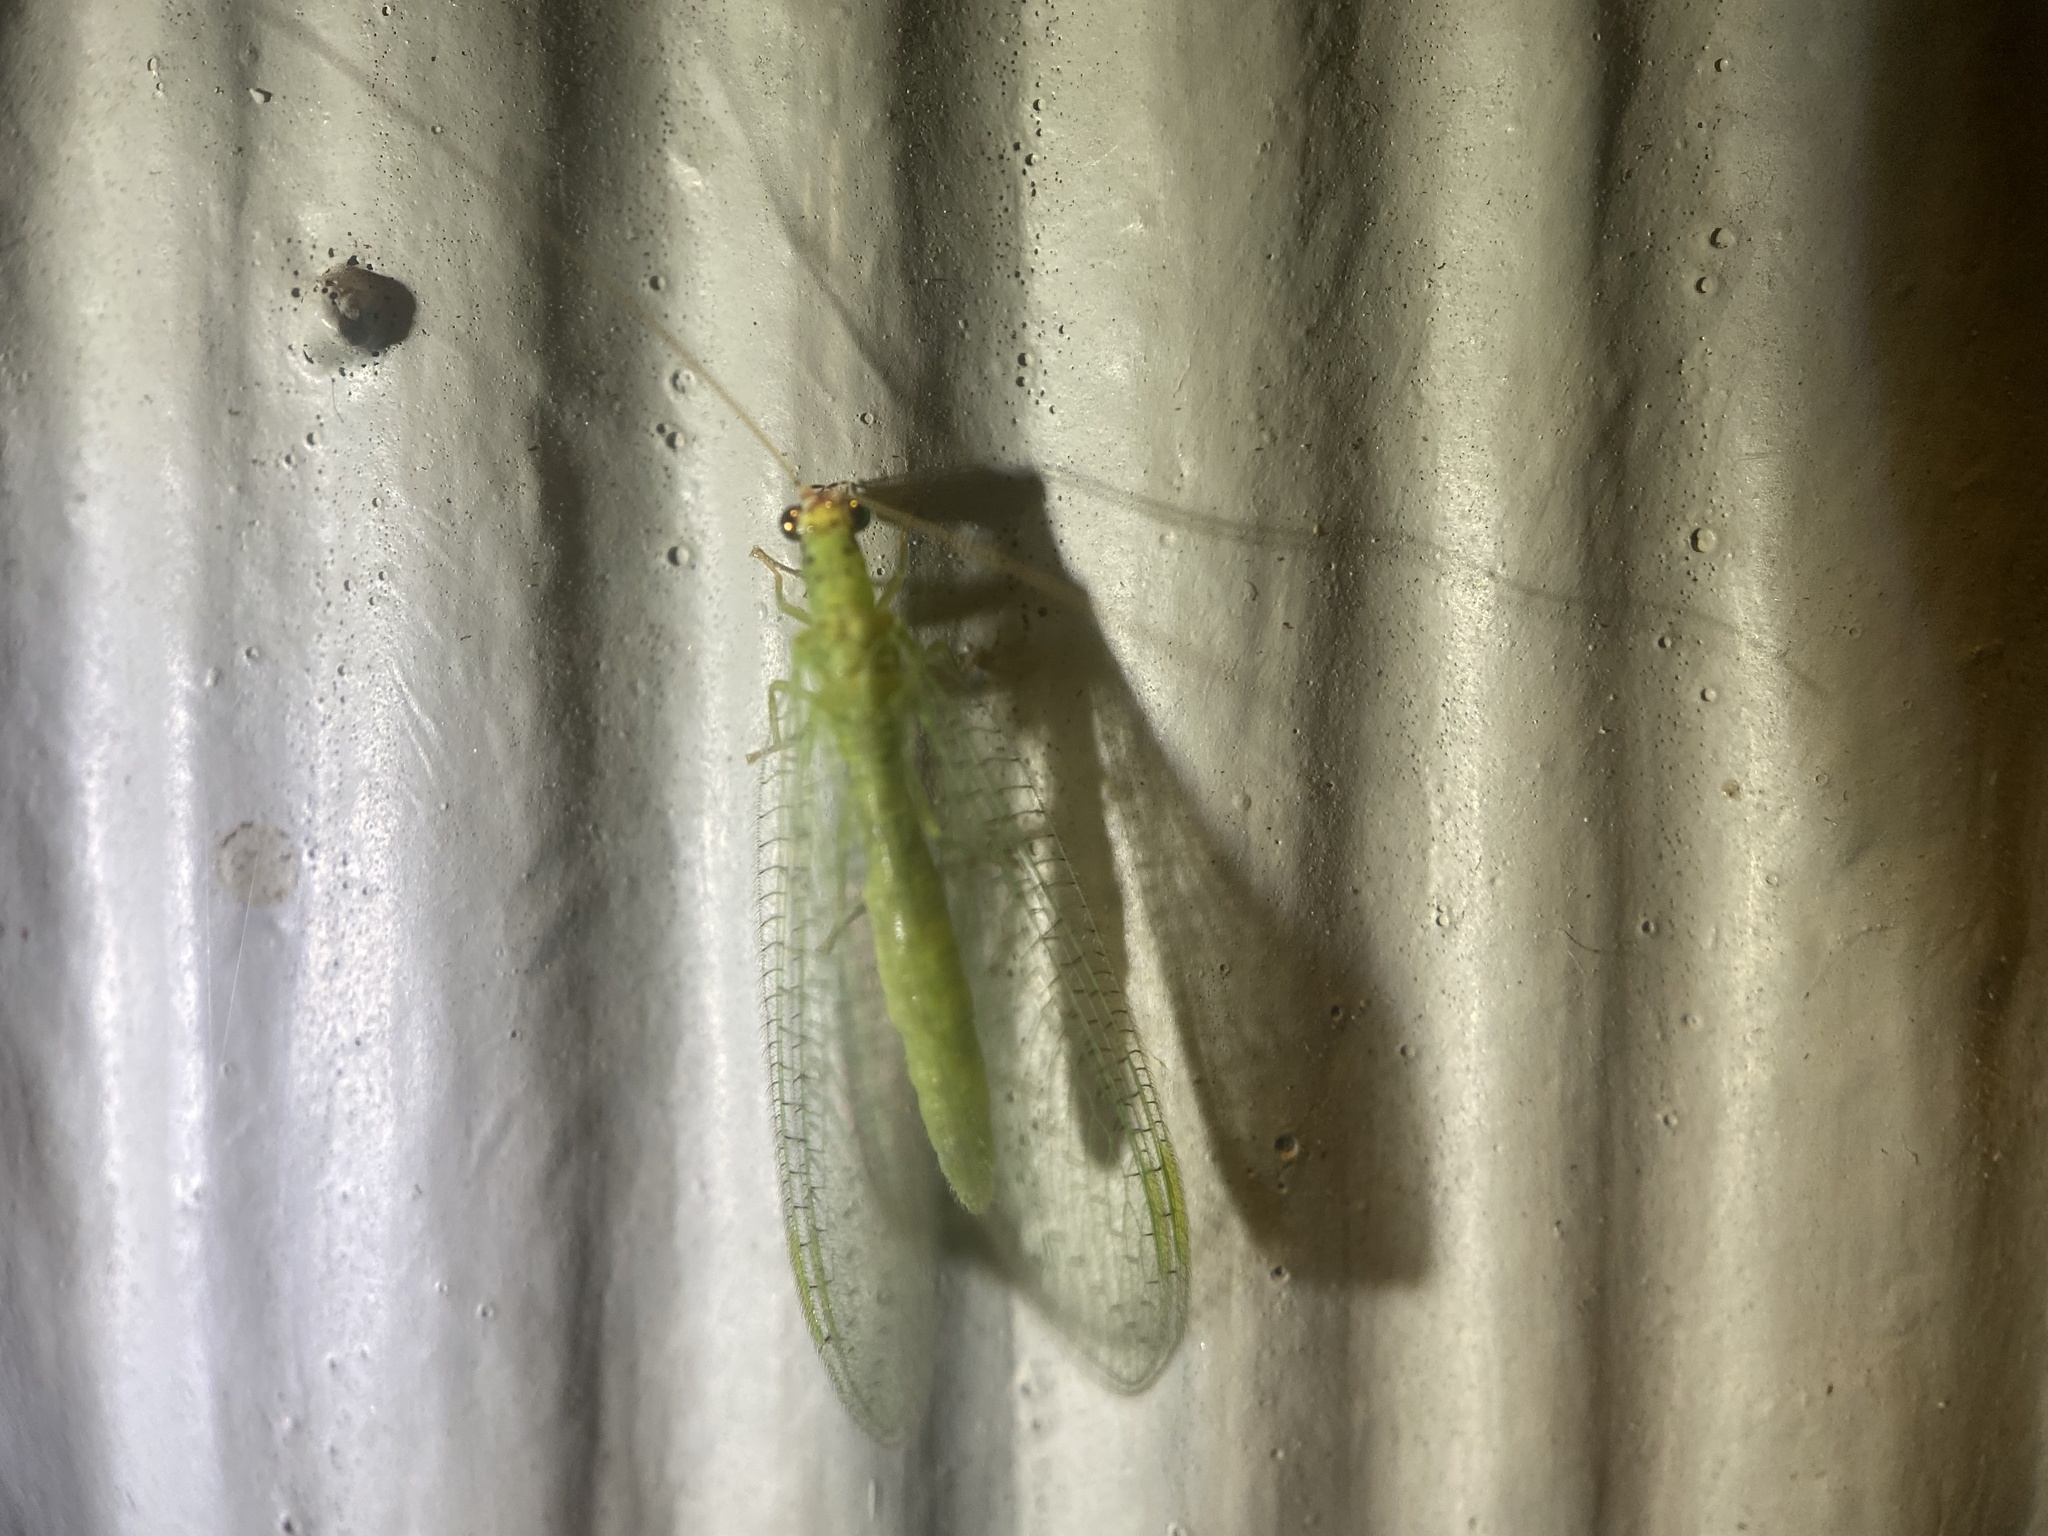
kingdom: Animalia
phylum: Arthropoda
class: Insecta
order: Neuroptera
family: Chrysopidae
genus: Chrysopa
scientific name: Chrysopa oculata
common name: Golden-eyed lacewing
